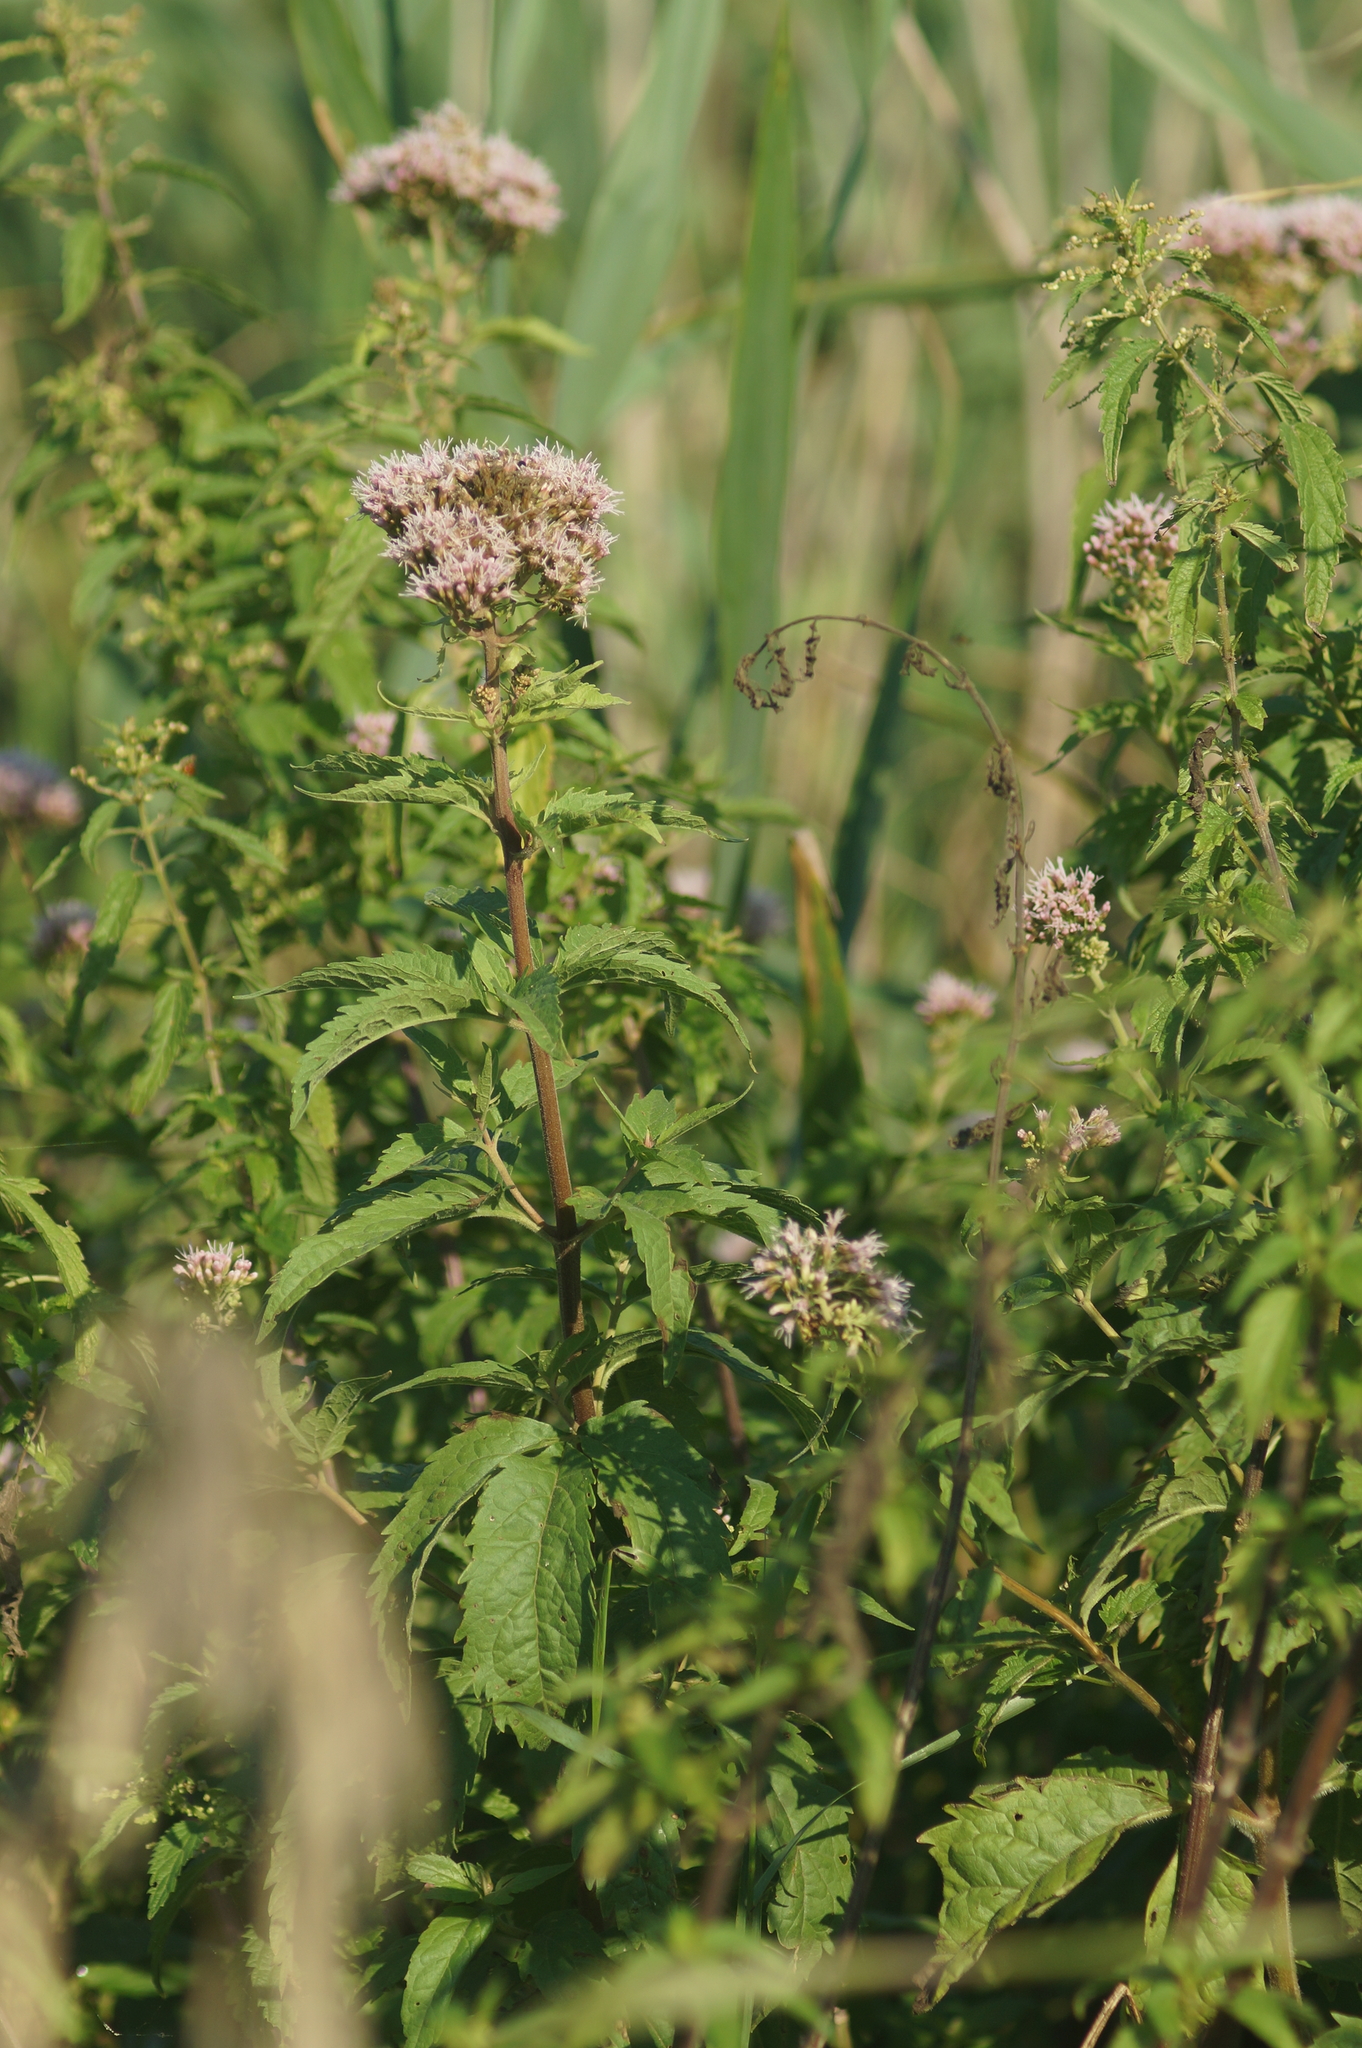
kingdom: Plantae
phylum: Tracheophyta
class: Magnoliopsida
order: Asterales
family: Asteraceae
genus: Eupatorium
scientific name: Eupatorium cannabinum
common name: Hemp-agrimony
